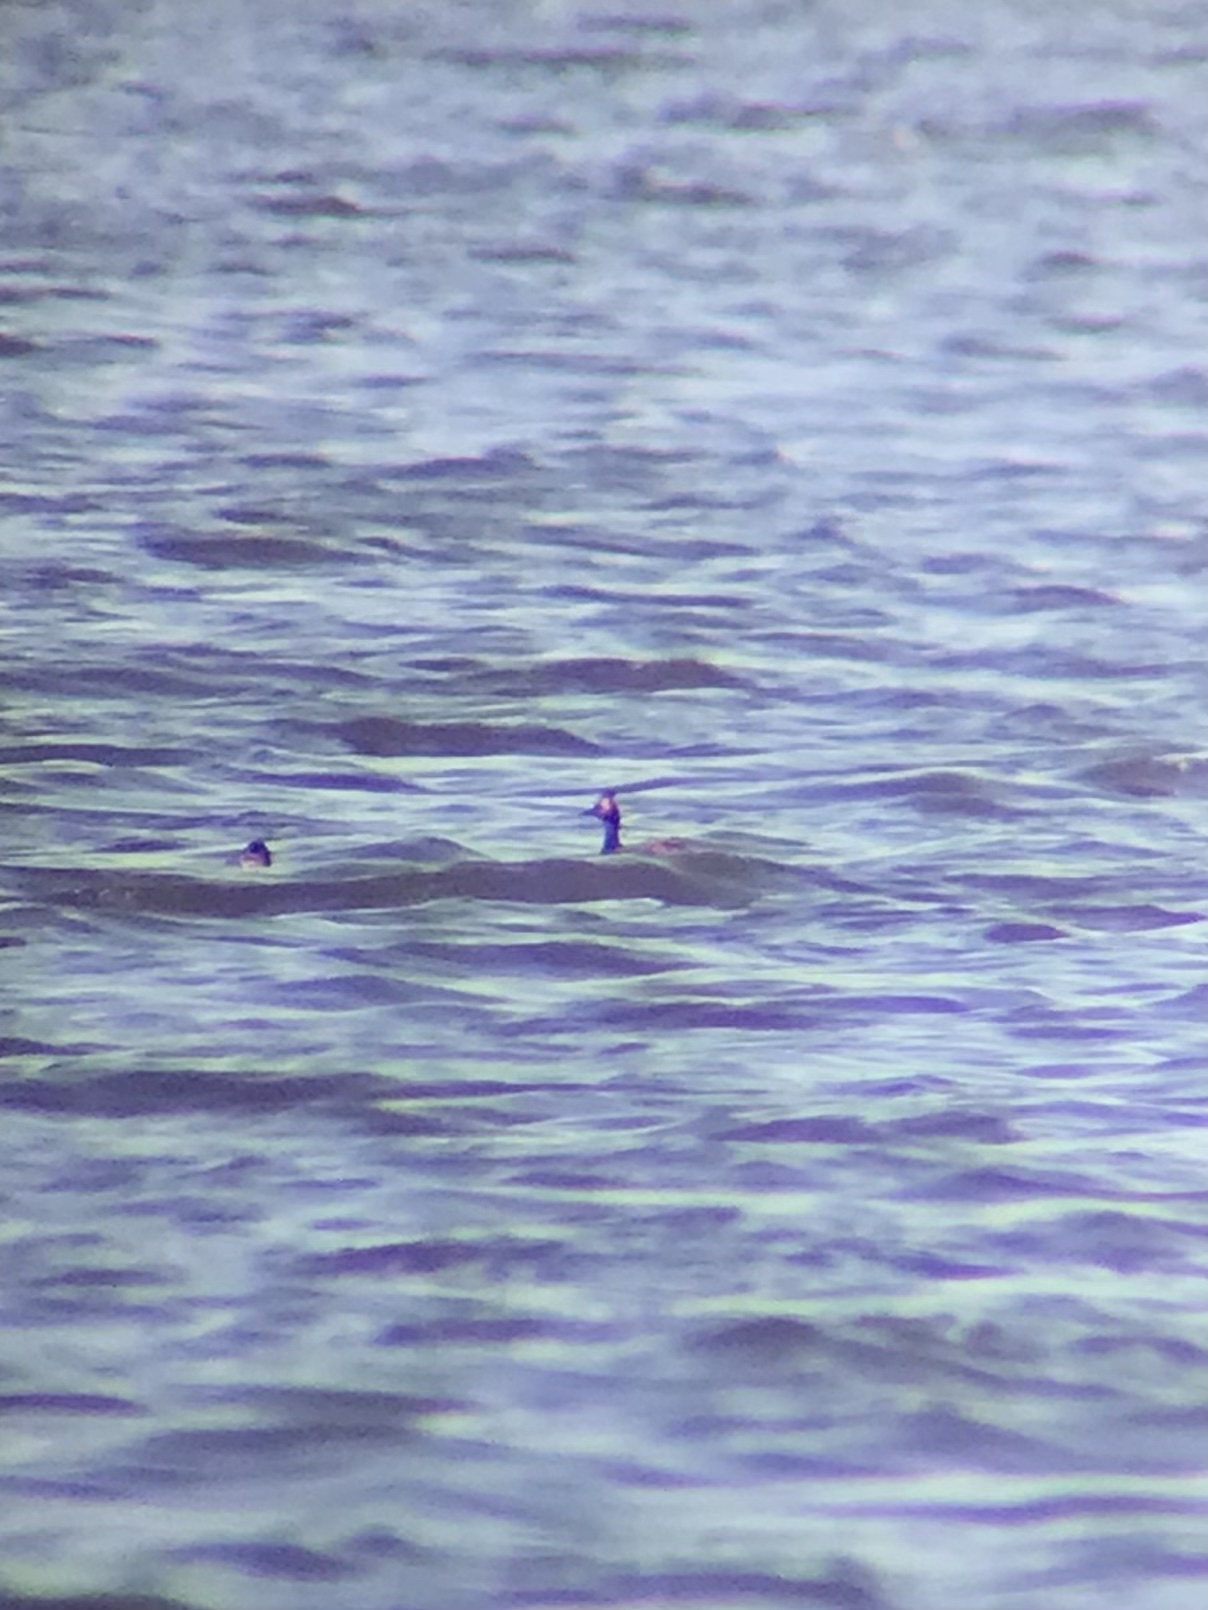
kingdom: Animalia
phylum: Chordata
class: Aves
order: Podicipediformes
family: Podicipedidae
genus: Podiceps
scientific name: Podiceps nigricollis
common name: Black-necked grebe
